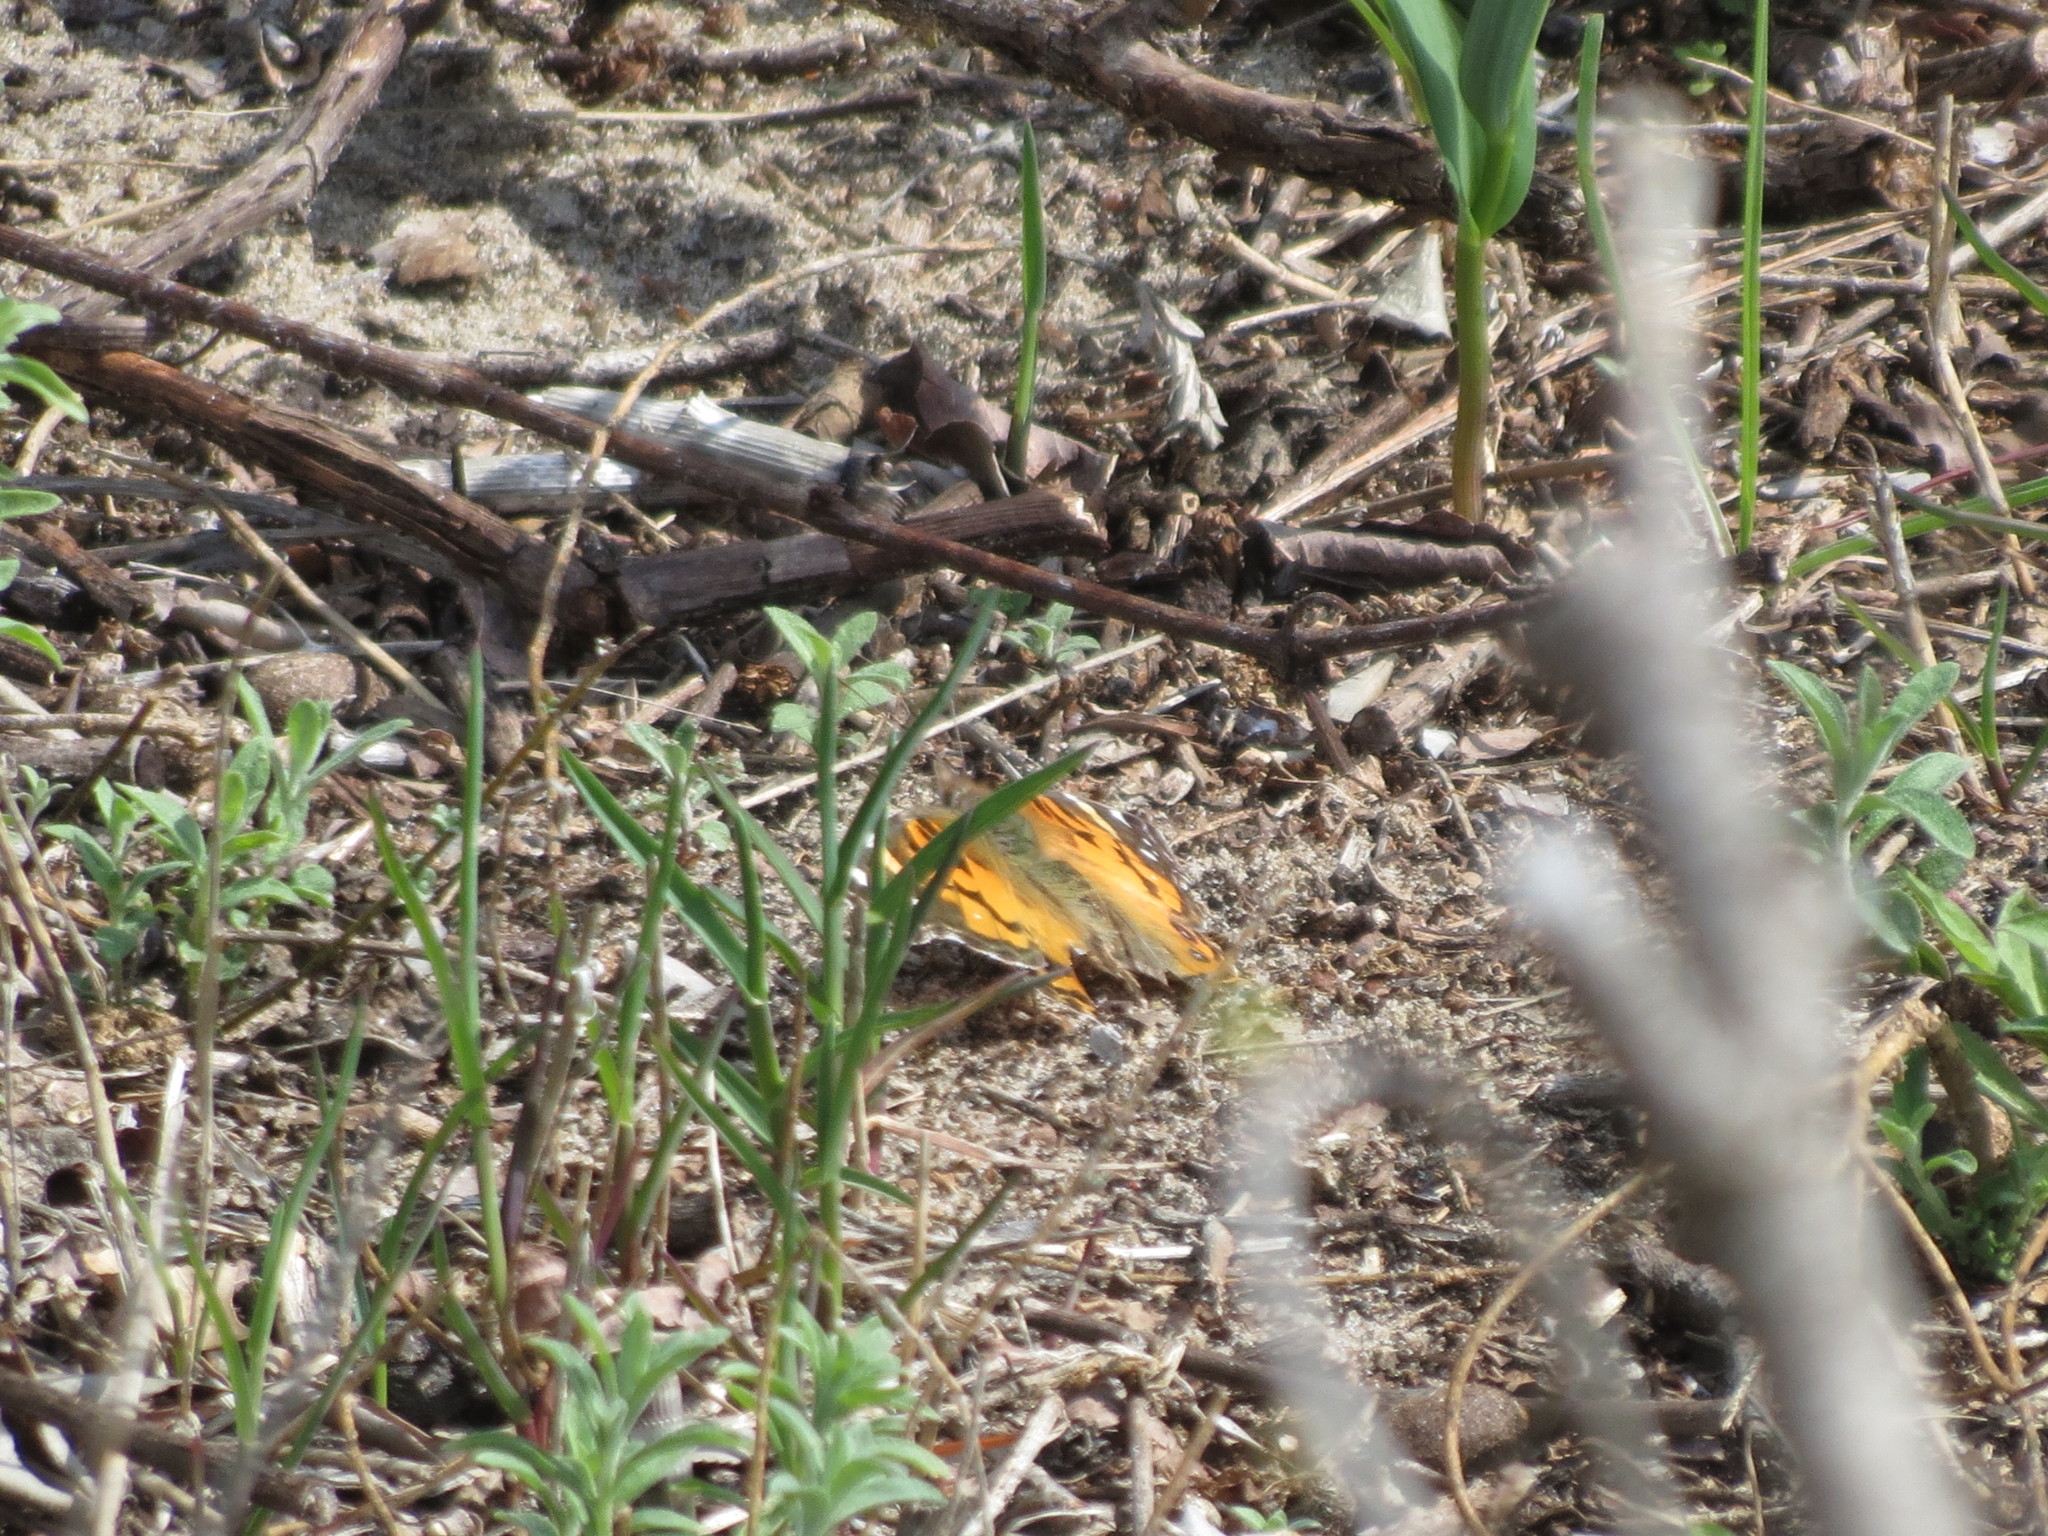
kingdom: Animalia
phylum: Arthropoda
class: Insecta
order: Lepidoptera
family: Nymphalidae
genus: Vanessa
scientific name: Vanessa virginiensis
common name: American lady
